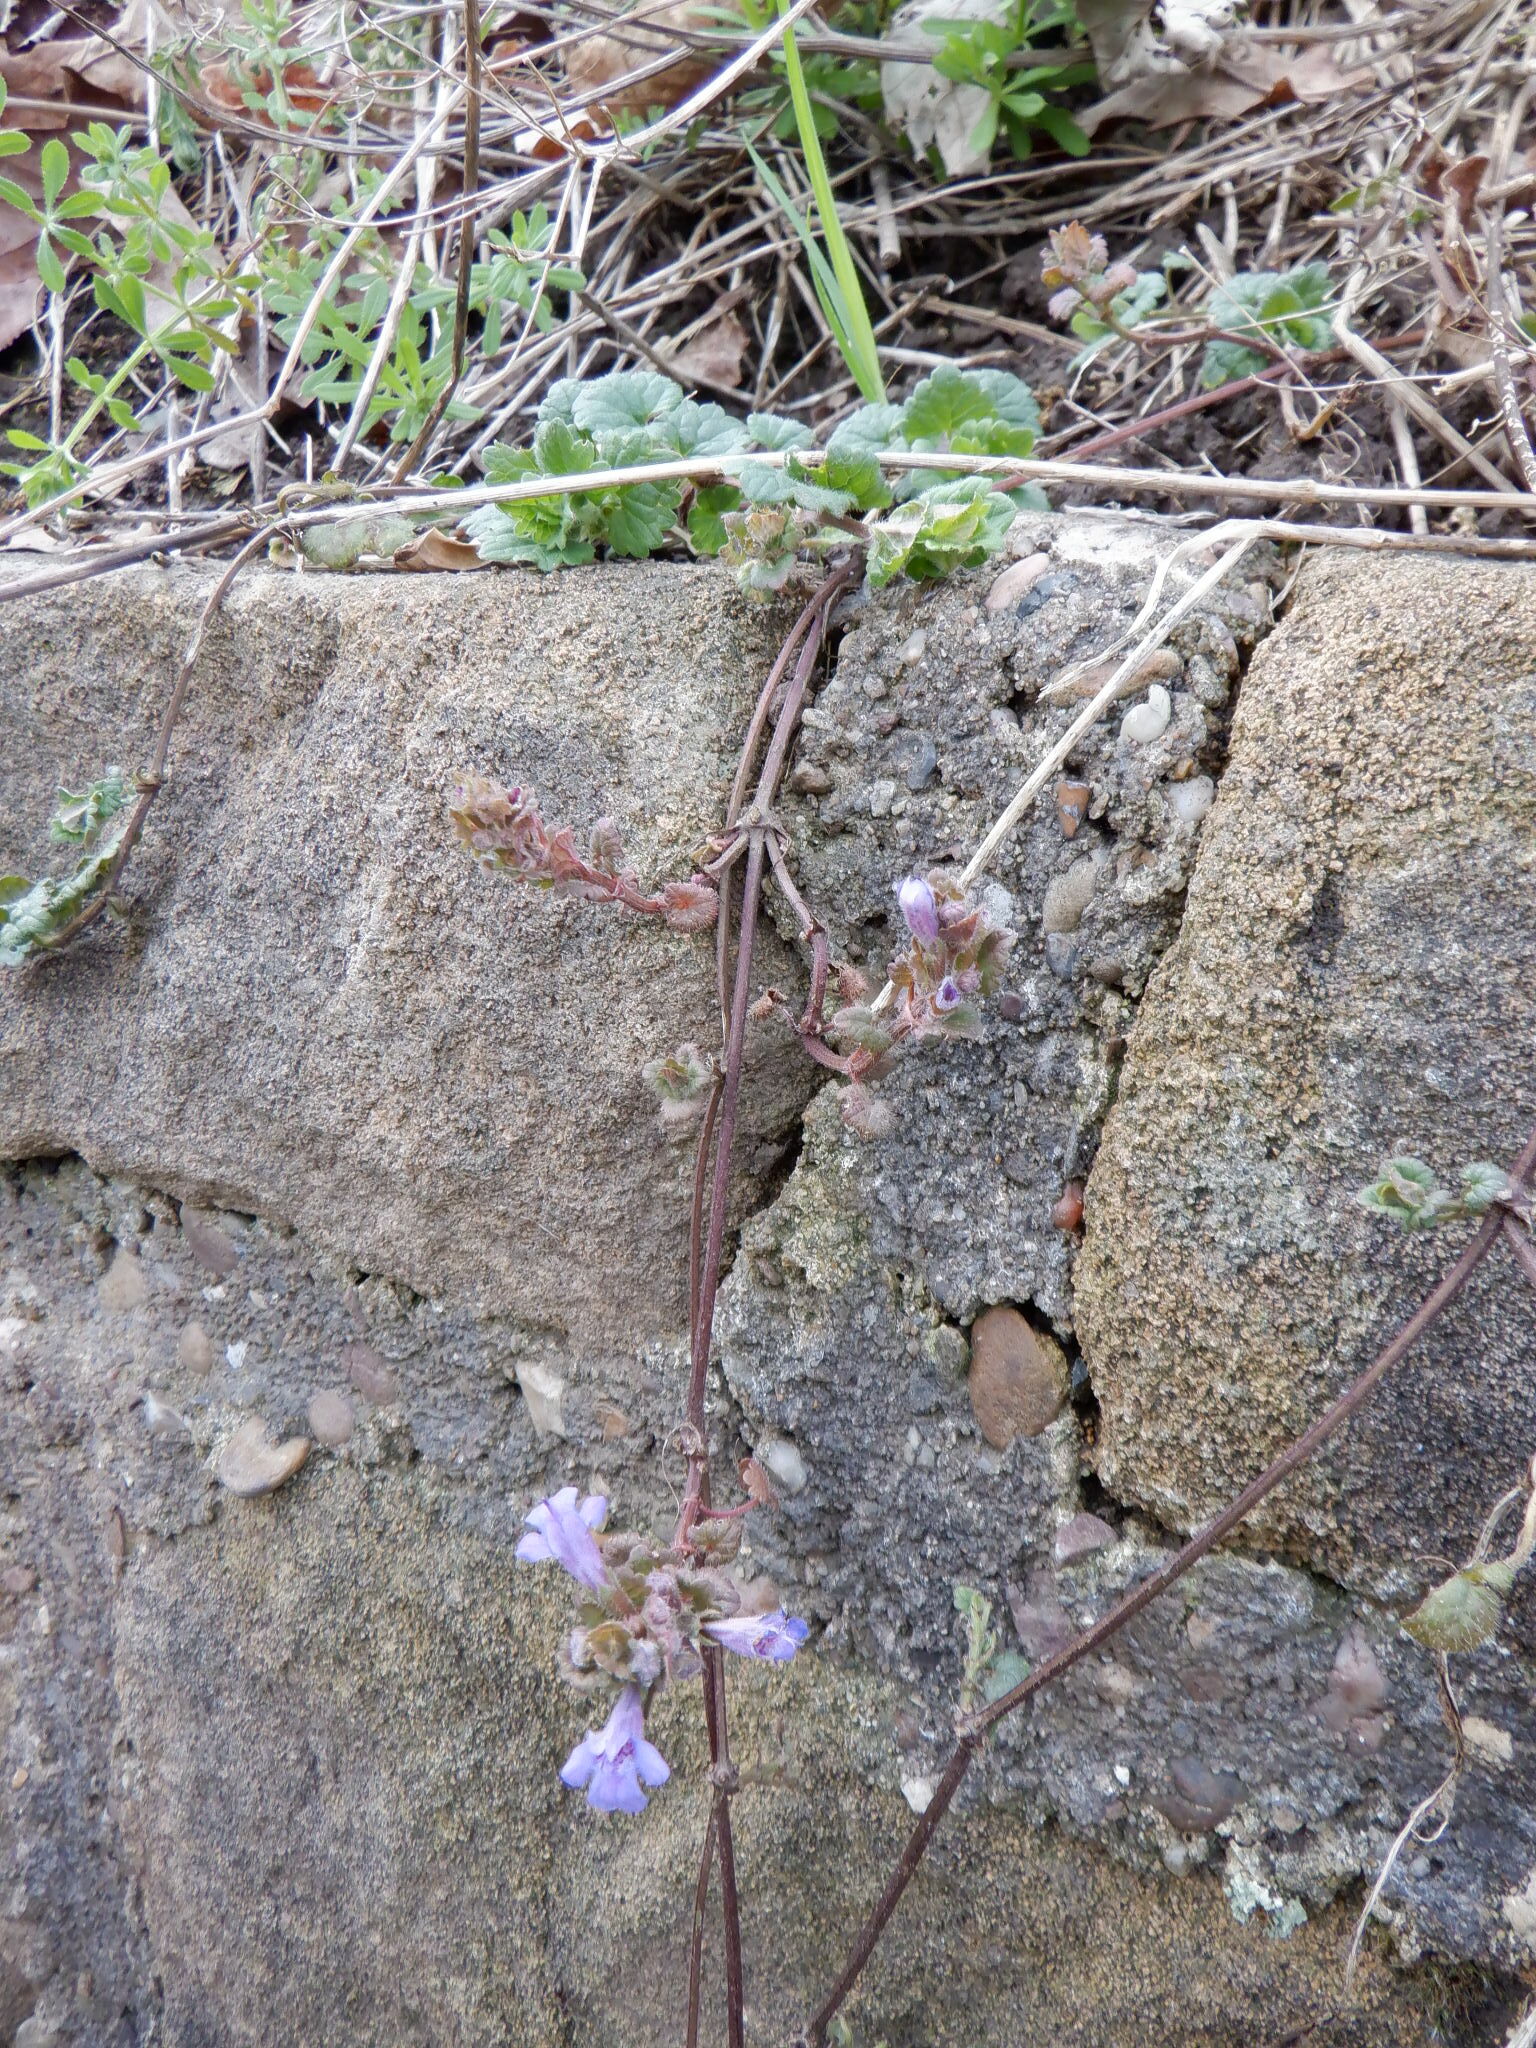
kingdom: Plantae
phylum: Tracheophyta
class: Magnoliopsida
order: Lamiales
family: Lamiaceae
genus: Glechoma
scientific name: Glechoma hederacea
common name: Ground ivy
